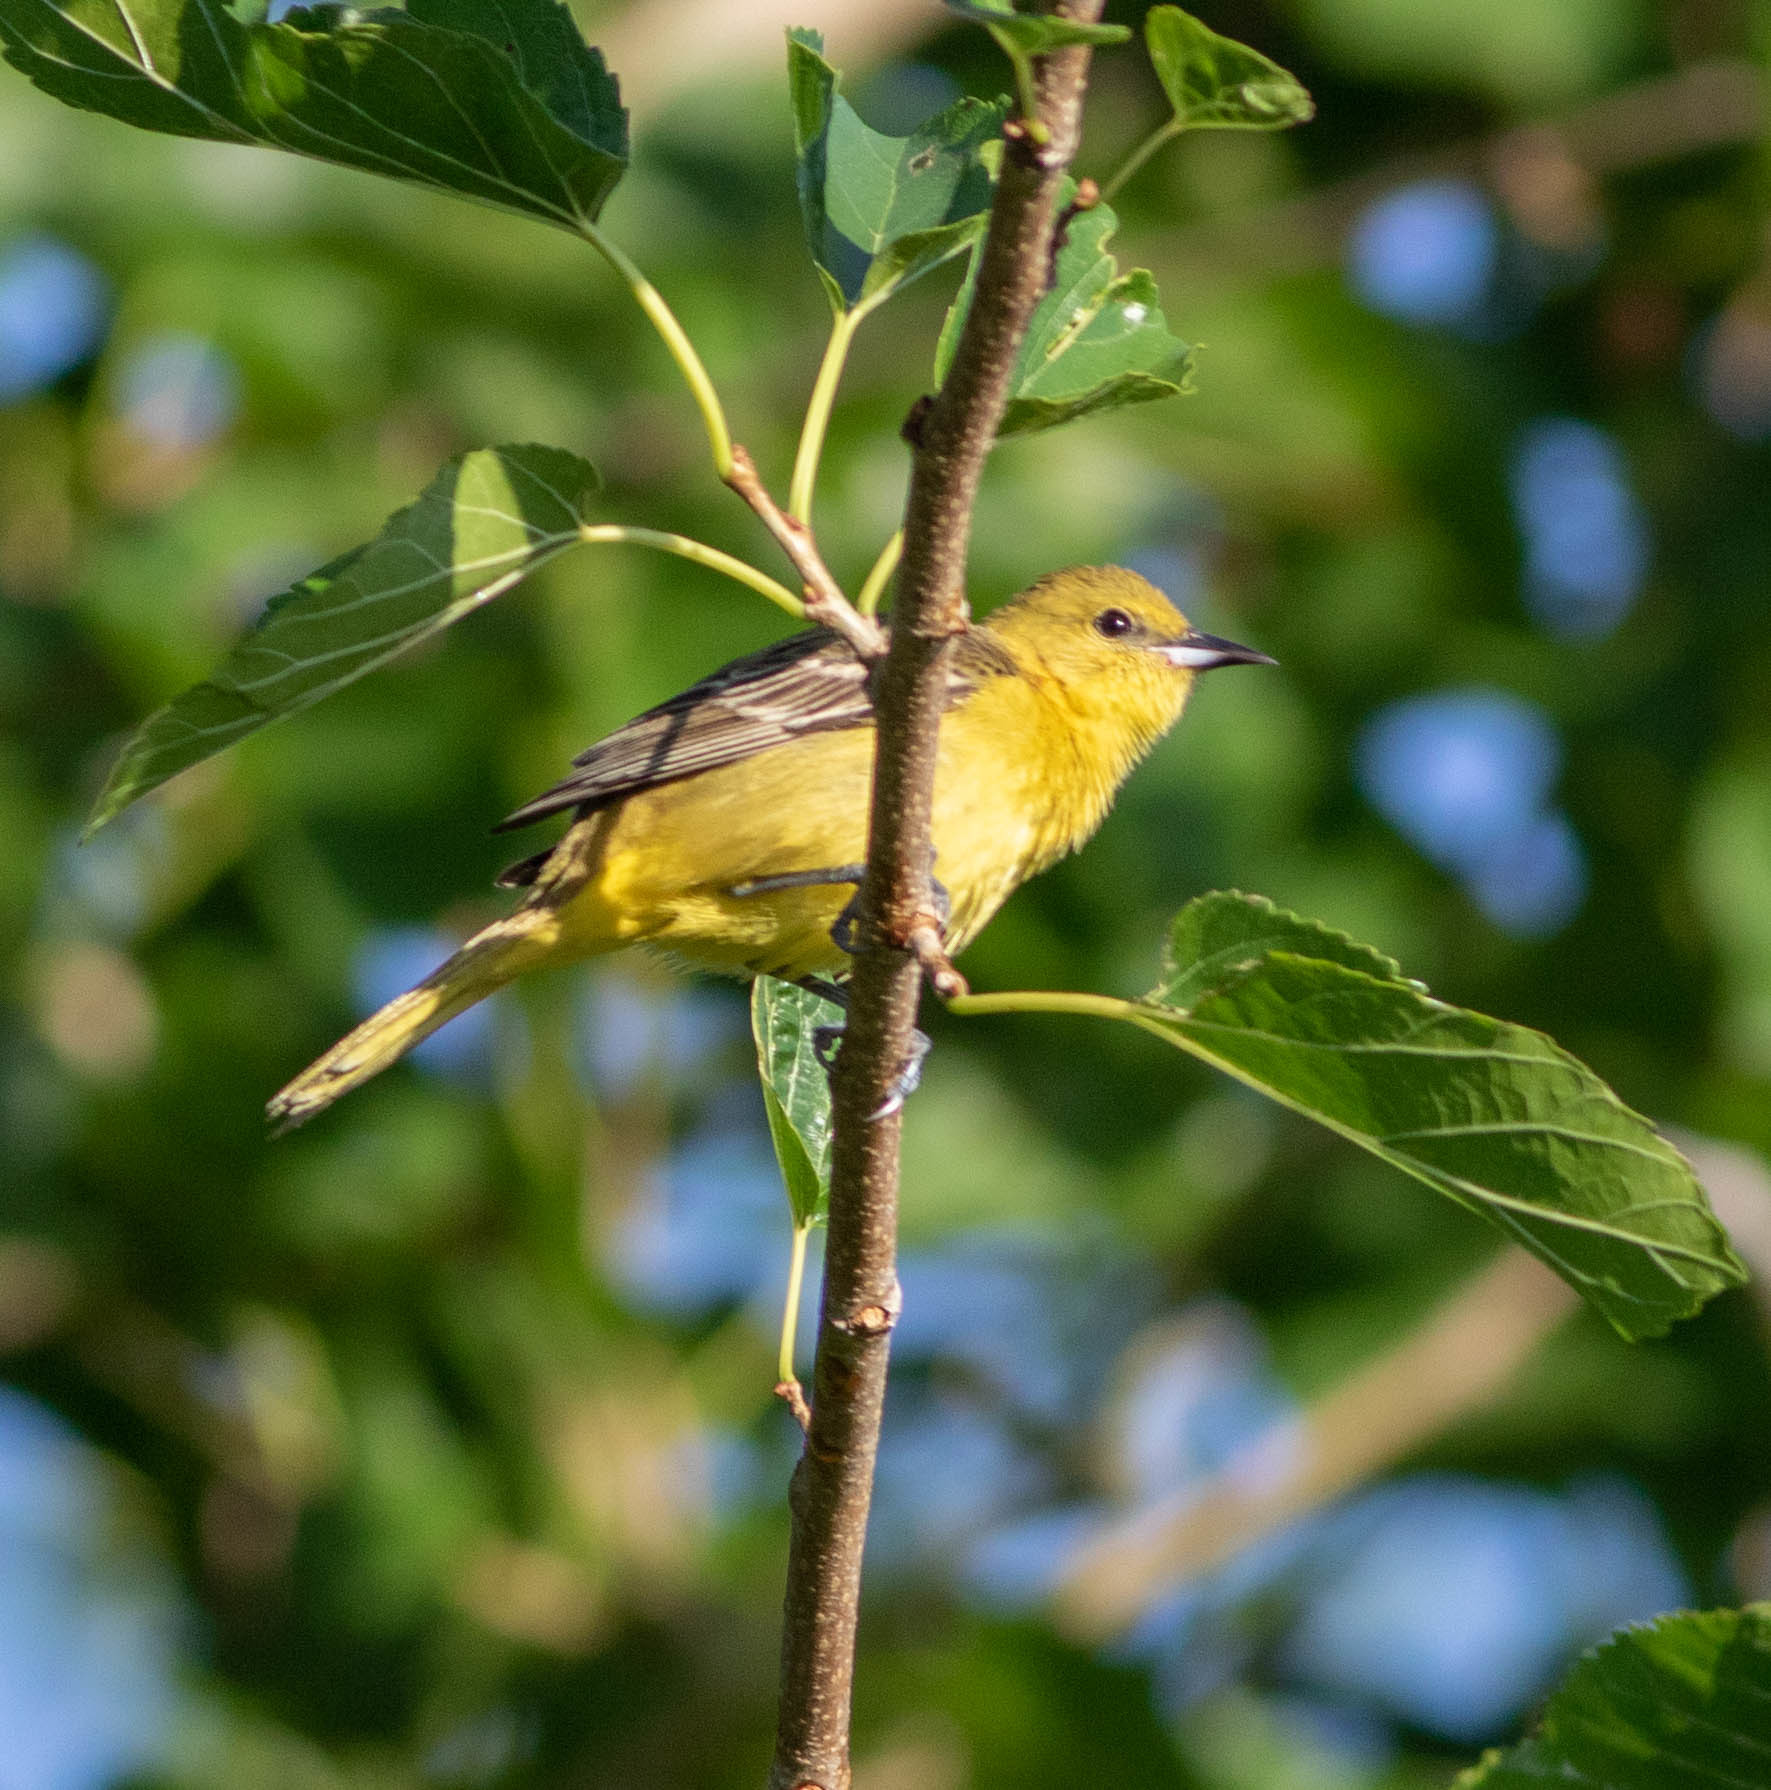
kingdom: Animalia
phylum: Chordata
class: Aves
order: Passeriformes
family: Icteridae
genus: Icterus
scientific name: Icterus spurius
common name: Orchard oriole
